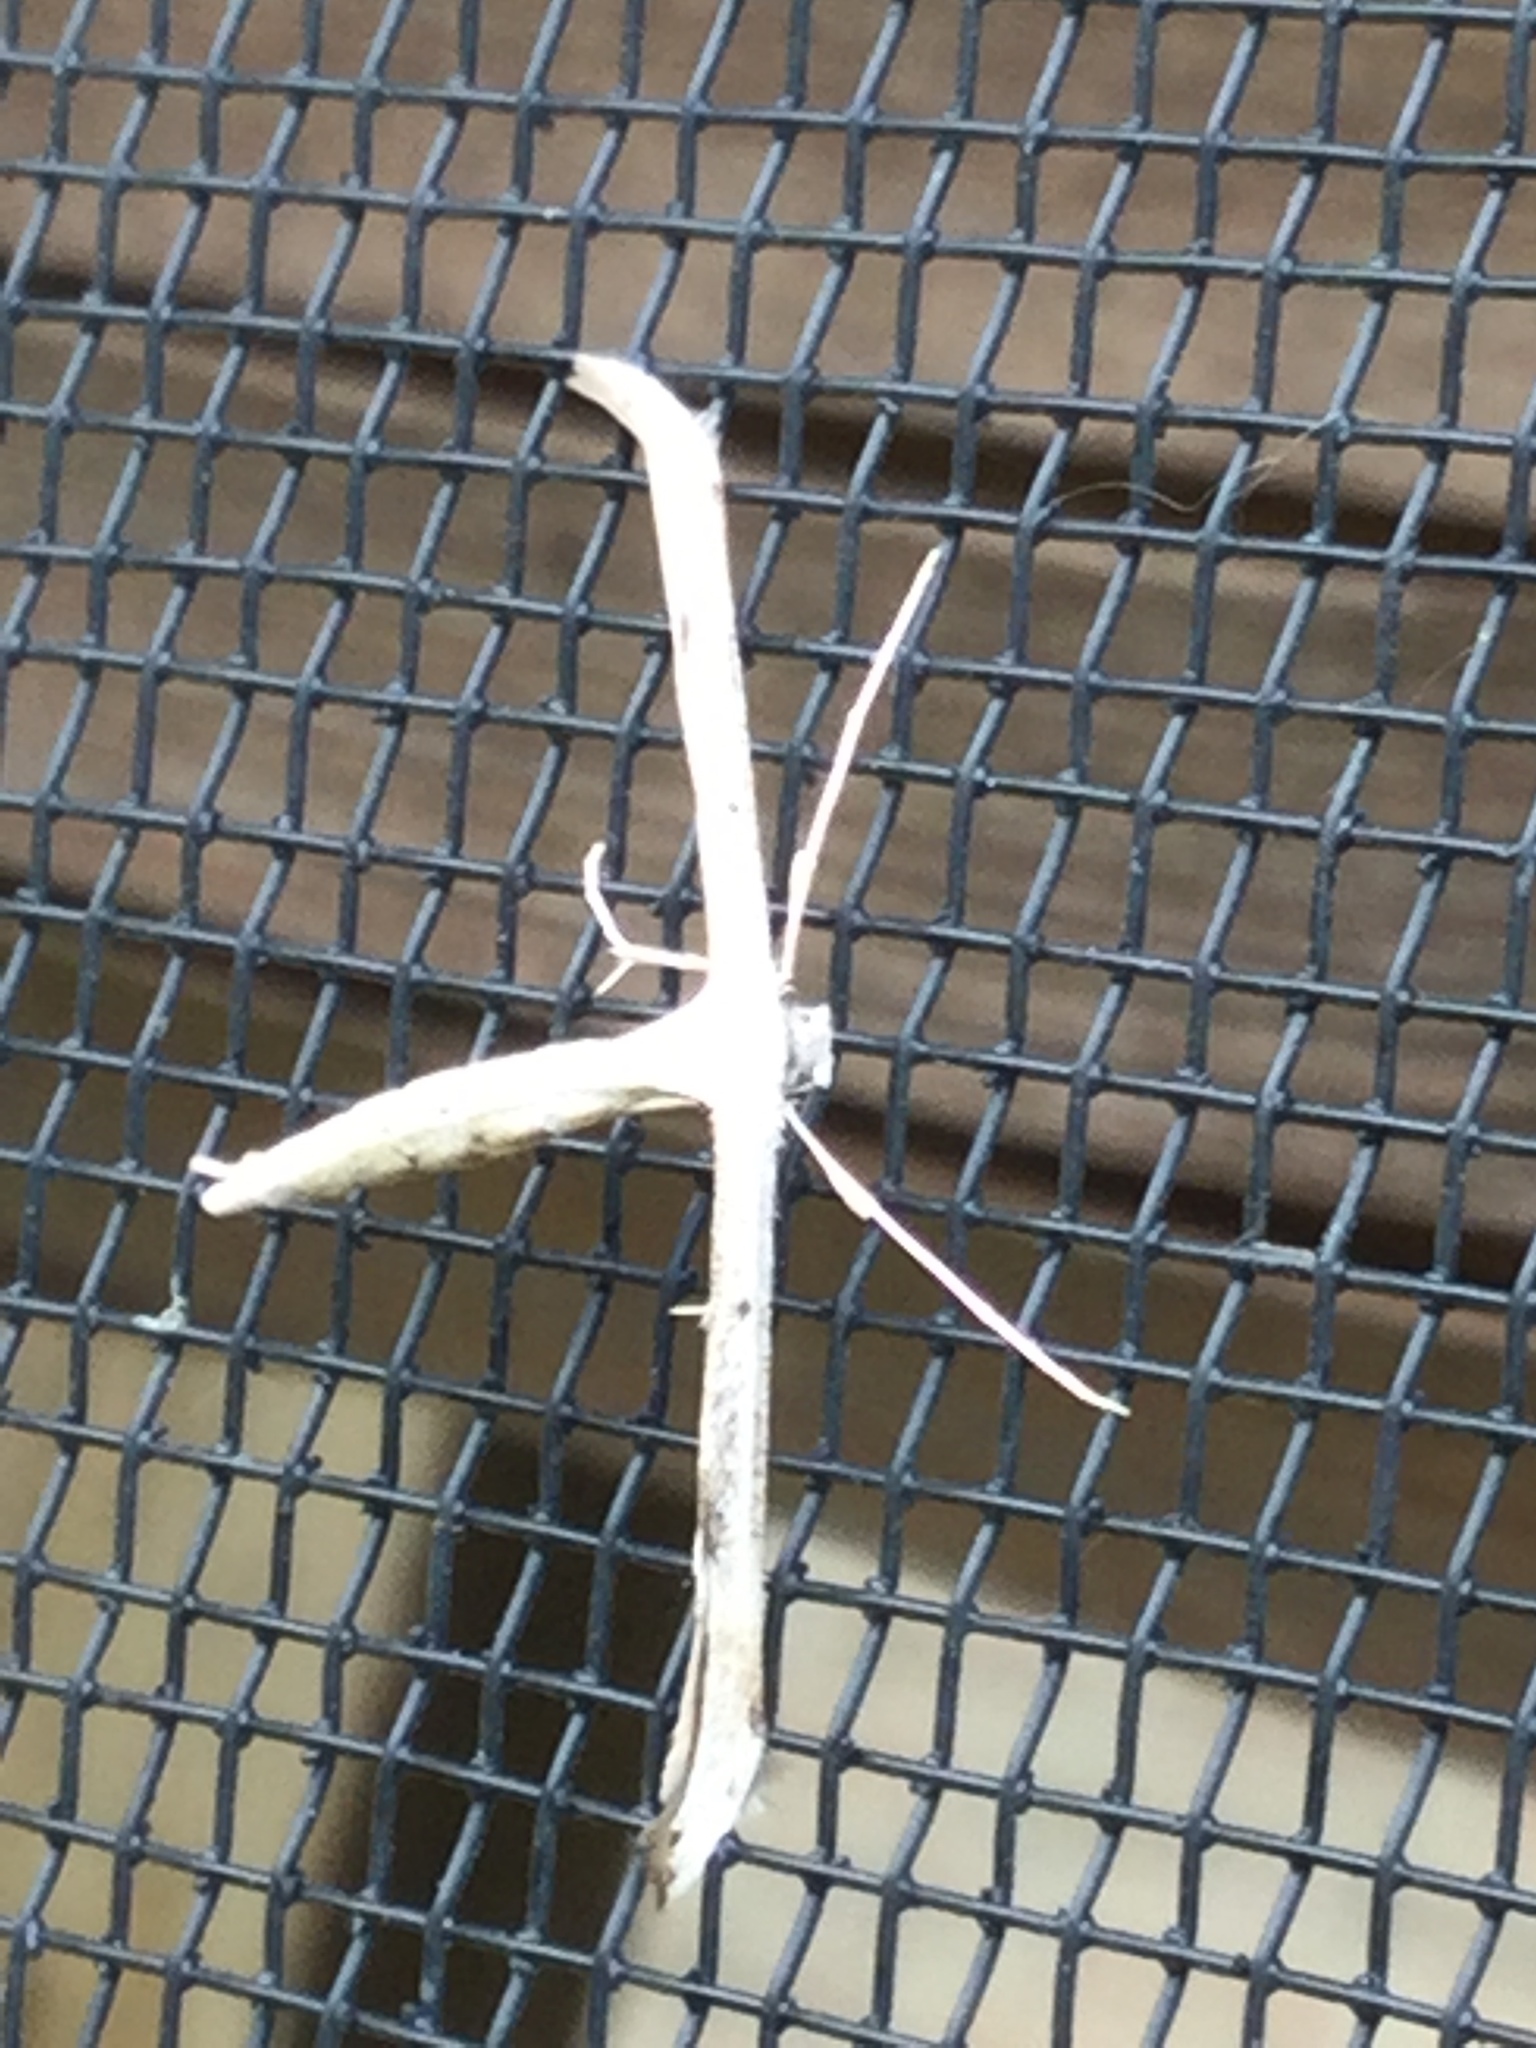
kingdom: Animalia
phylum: Arthropoda
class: Insecta
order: Lepidoptera
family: Pterophoridae
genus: Emmelina
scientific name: Emmelina monodactyla
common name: Common plume
